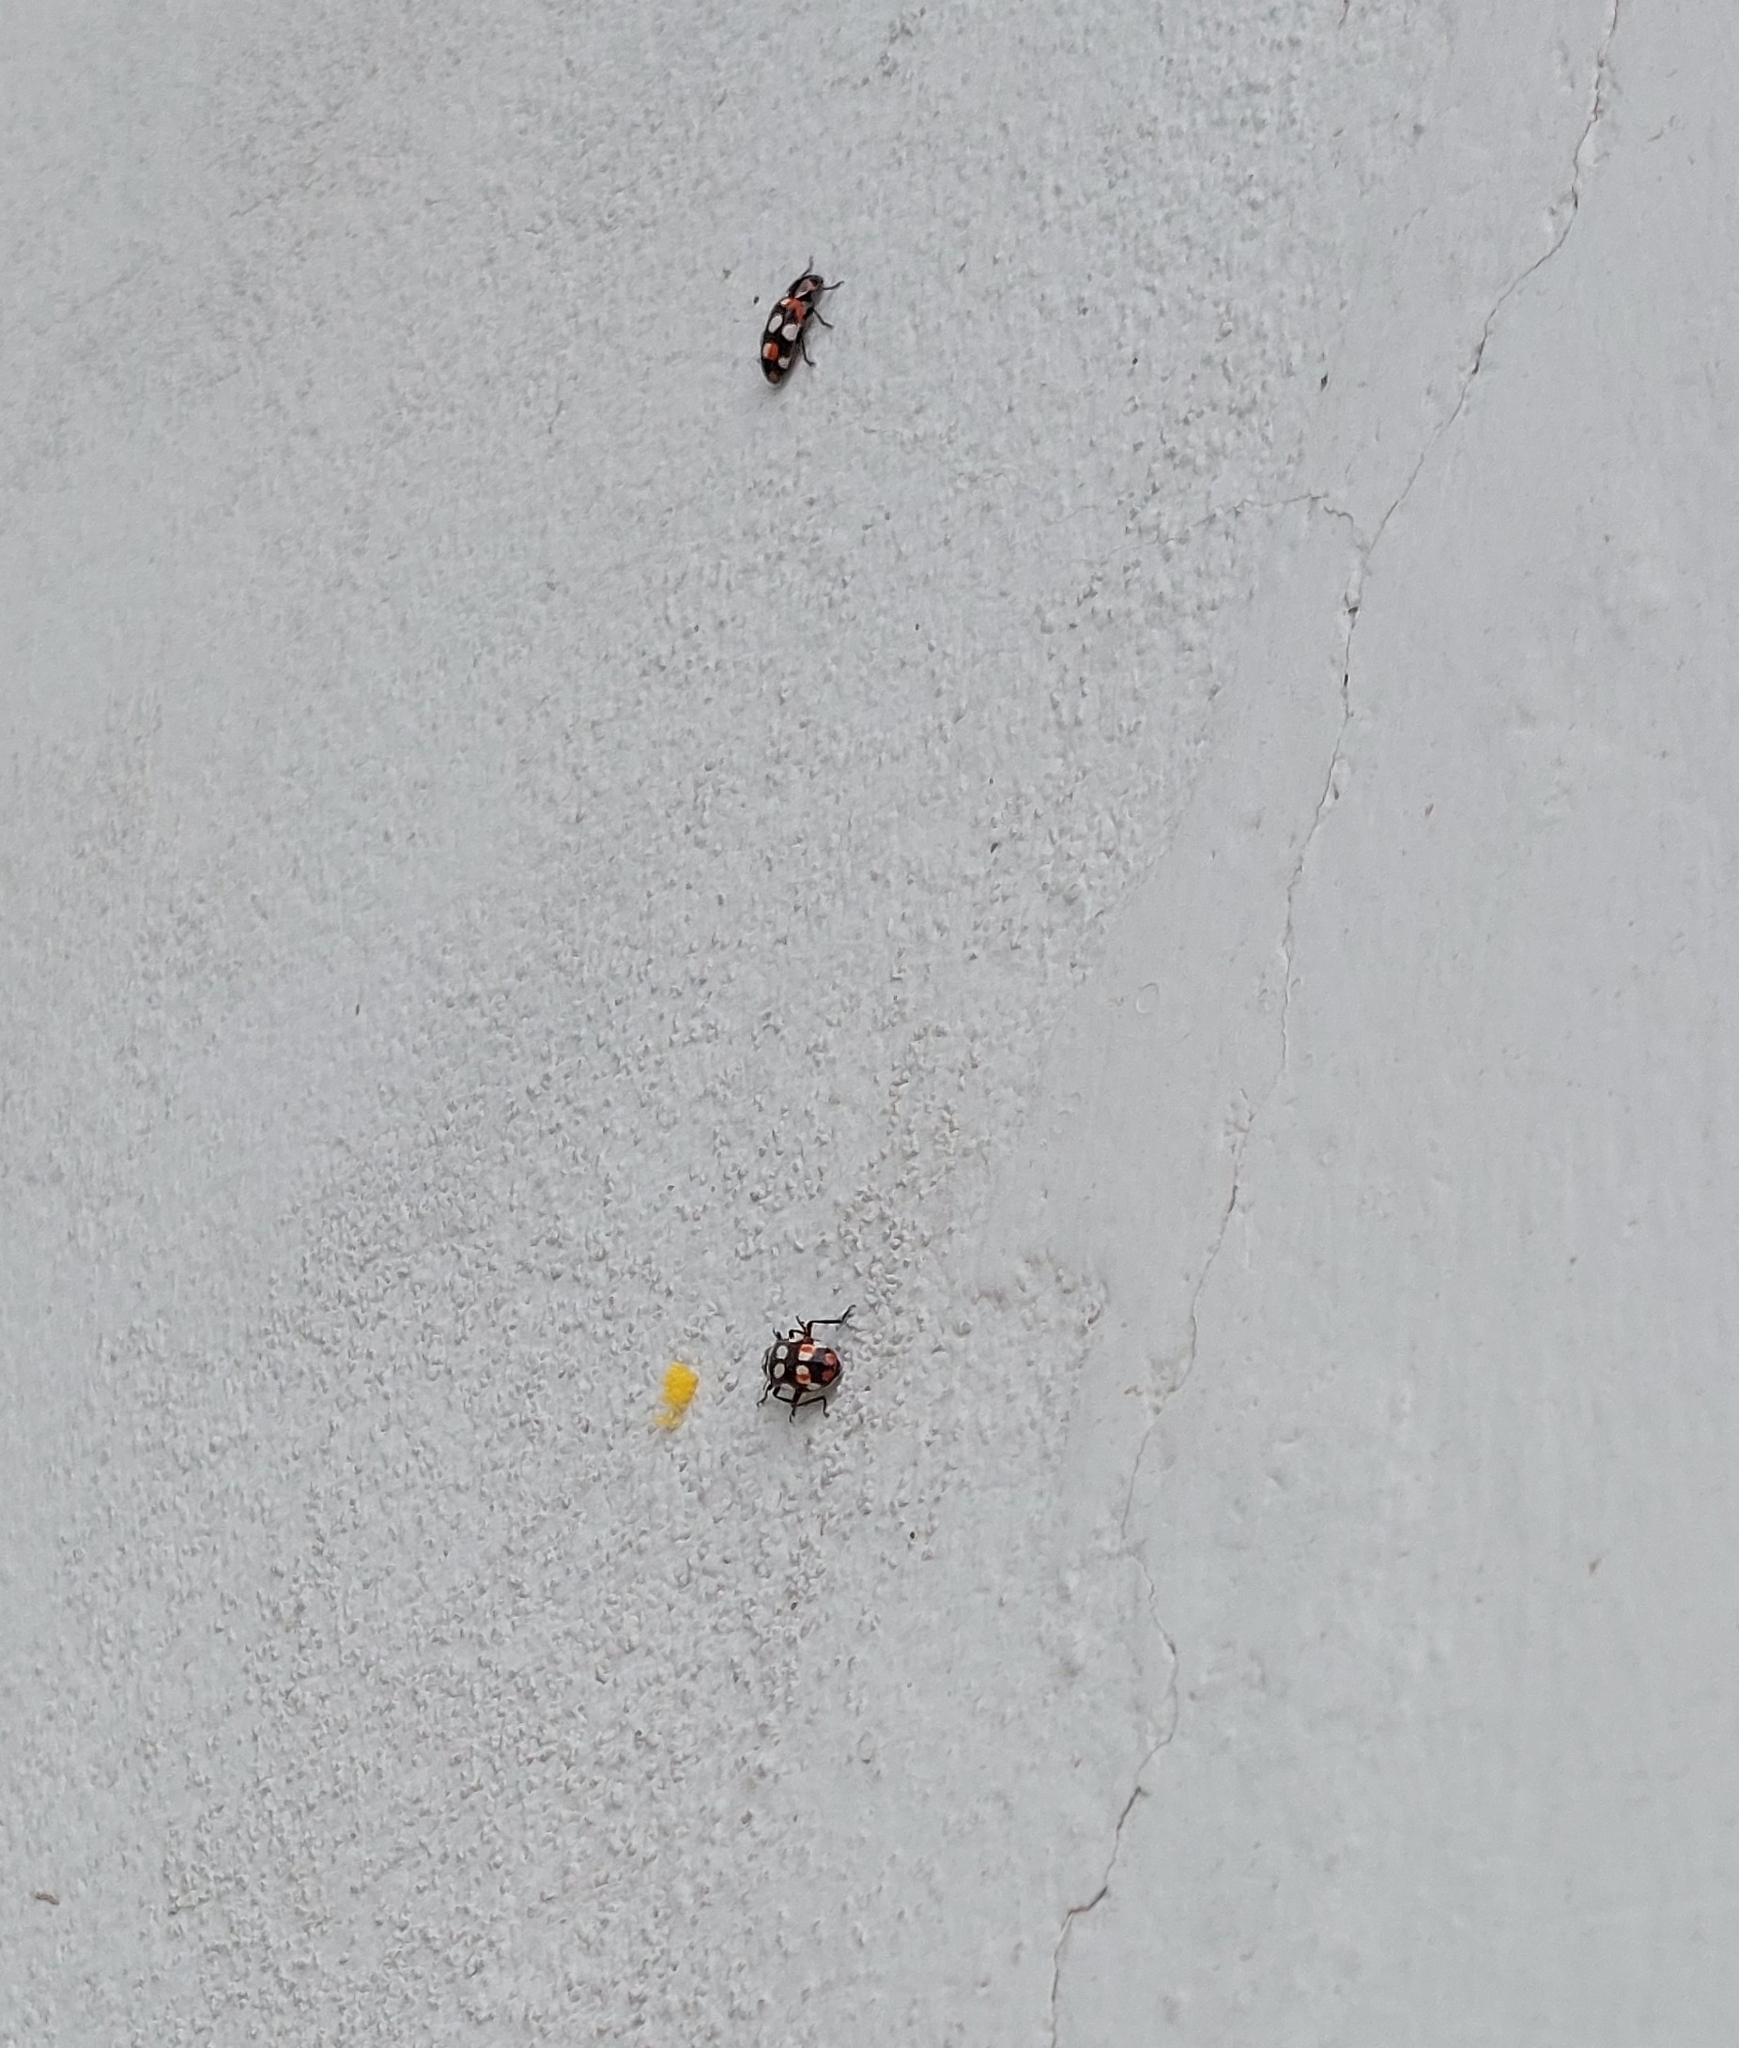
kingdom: Animalia
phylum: Arthropoda
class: Insecta
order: Coleoptera
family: Coccinellidae
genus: Eriopis
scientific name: Eriopis connexa
